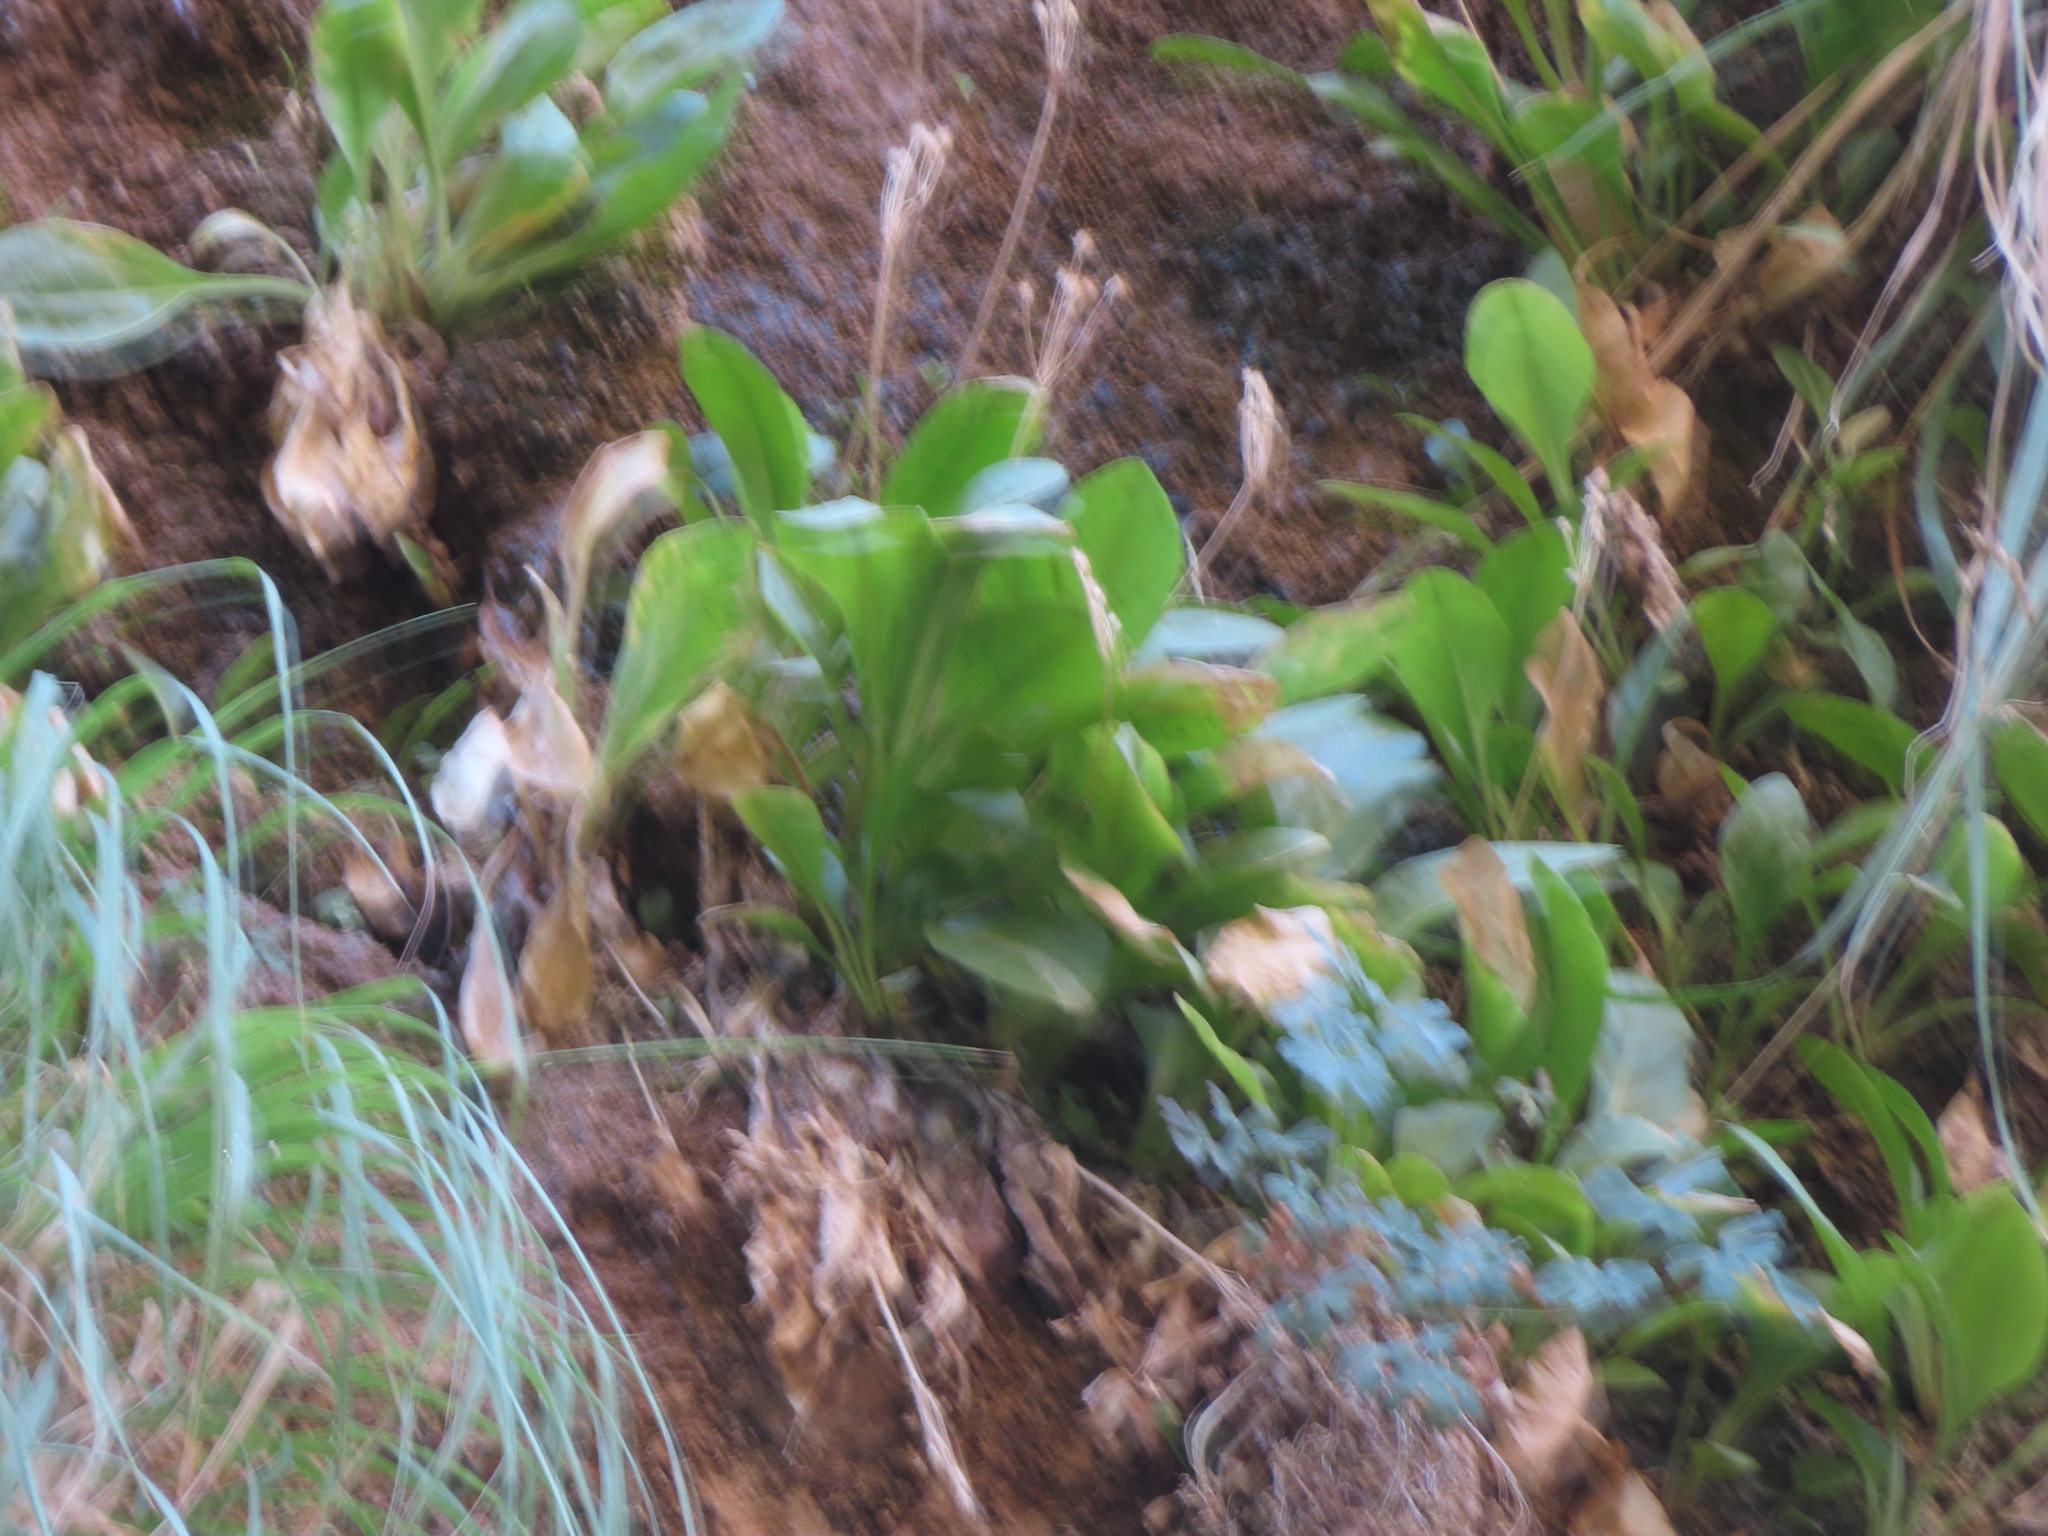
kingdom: Plantae
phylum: Tracheophyta
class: Magnoliopsida
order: Ericales
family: Primulaceae
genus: Dodecatheon
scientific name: Dodecatheon pulchellum
